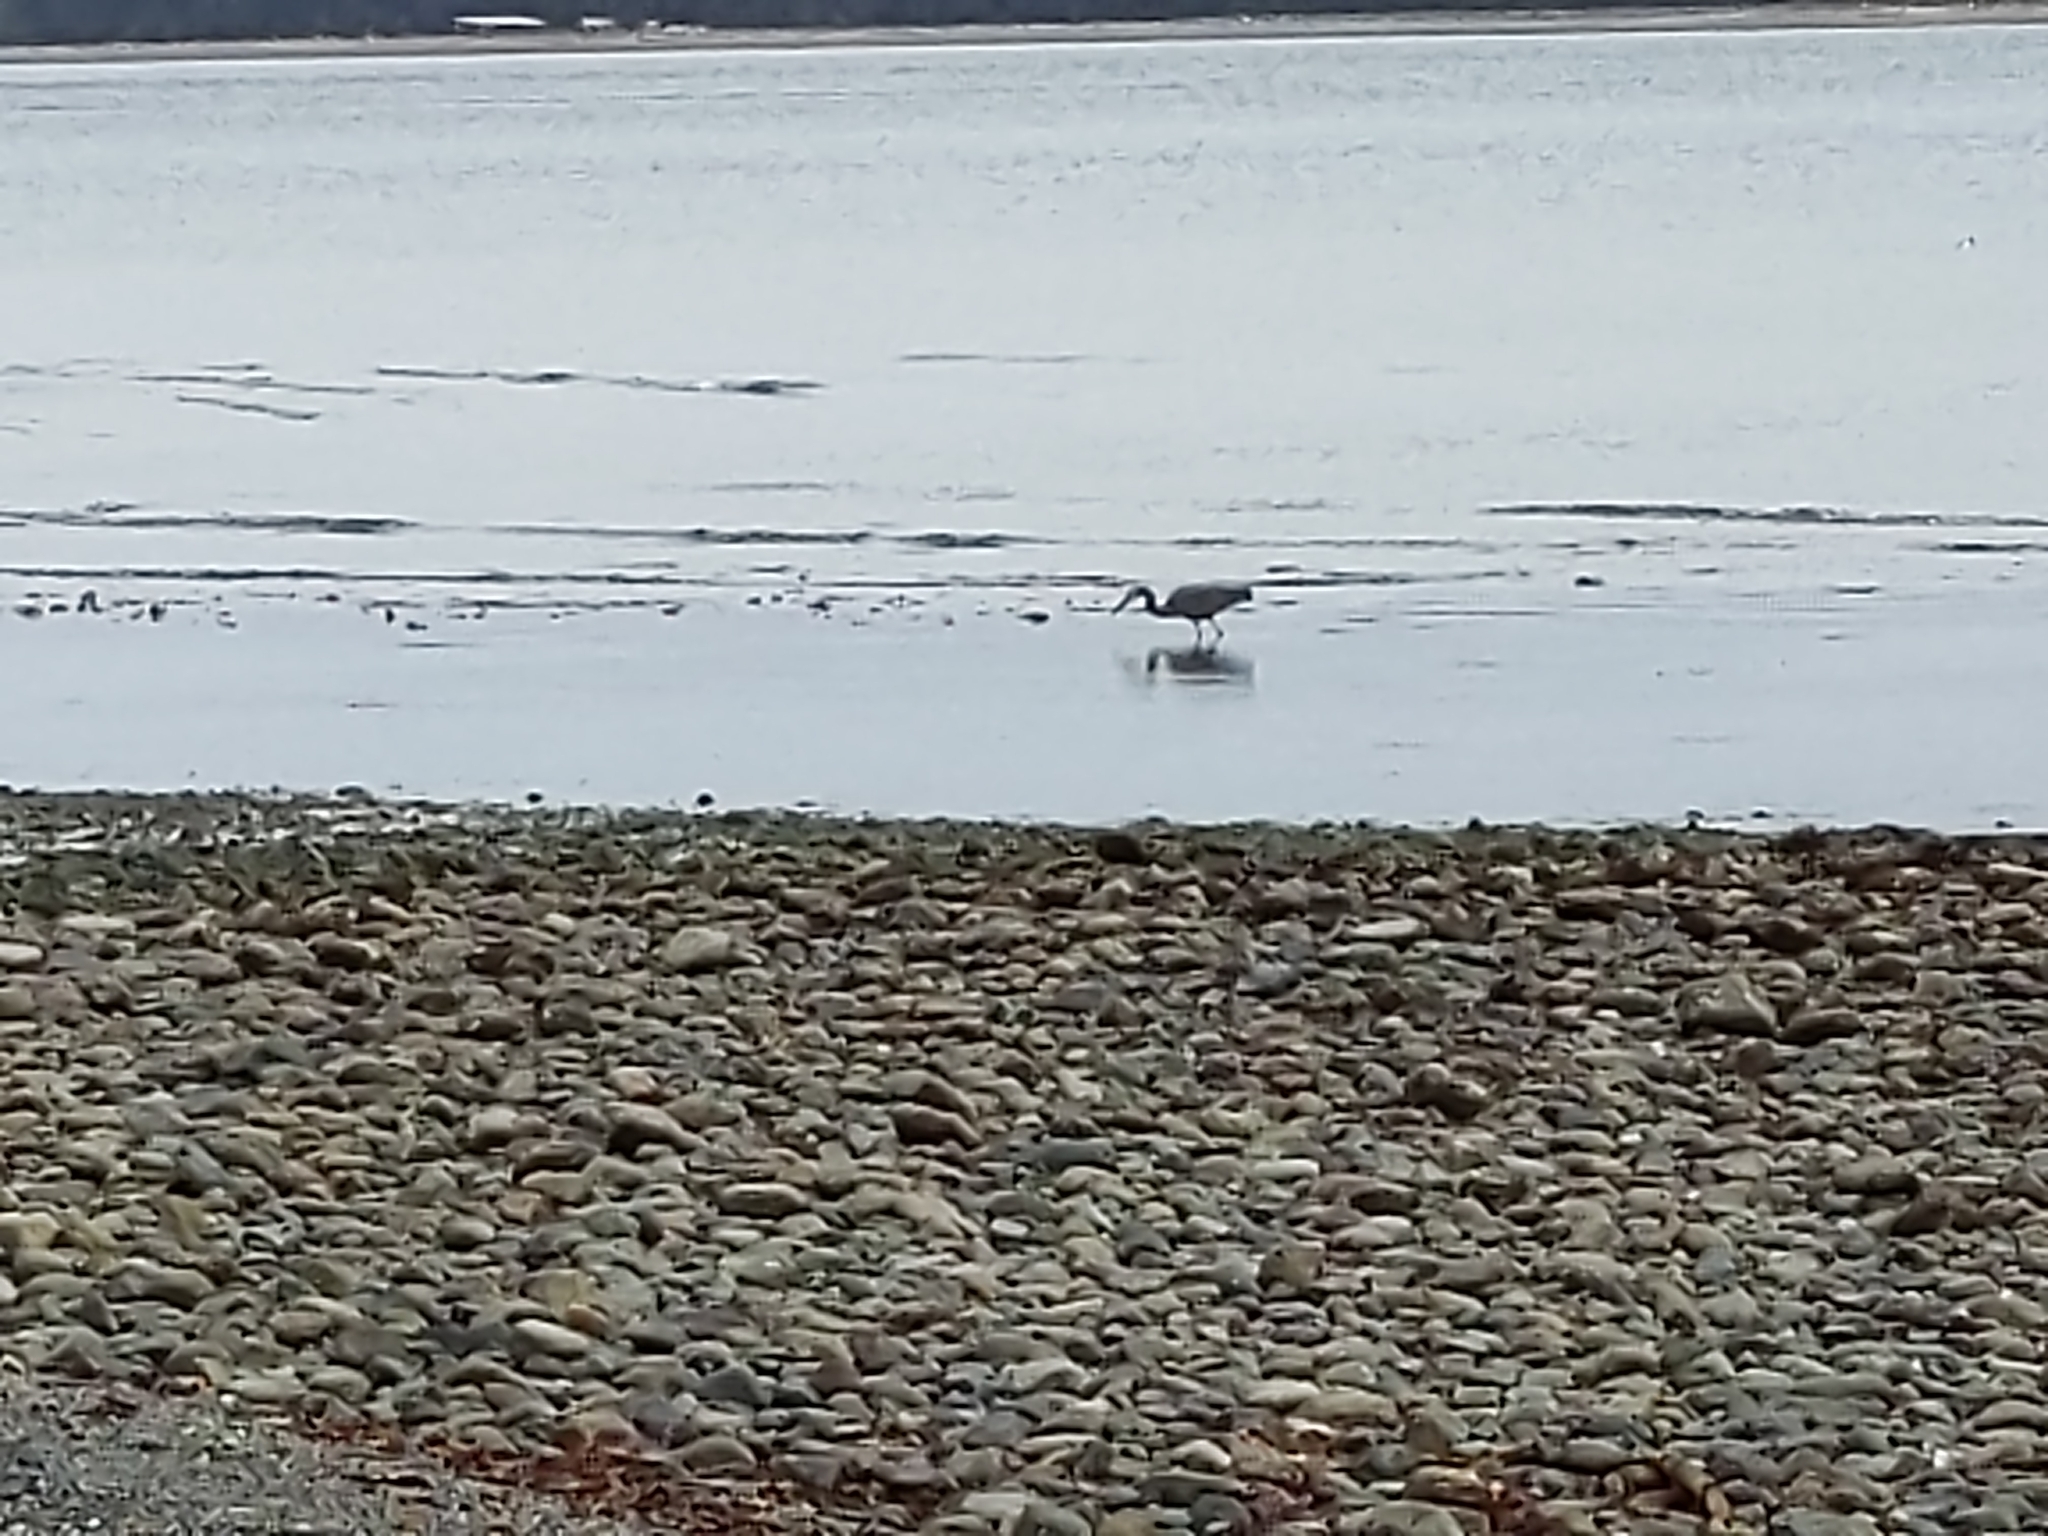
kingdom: Animalia
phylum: Chordata
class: Aves
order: Pelecaniformes
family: Ardeidae
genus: Ardea
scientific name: Ardea herodias
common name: Great blue heron
